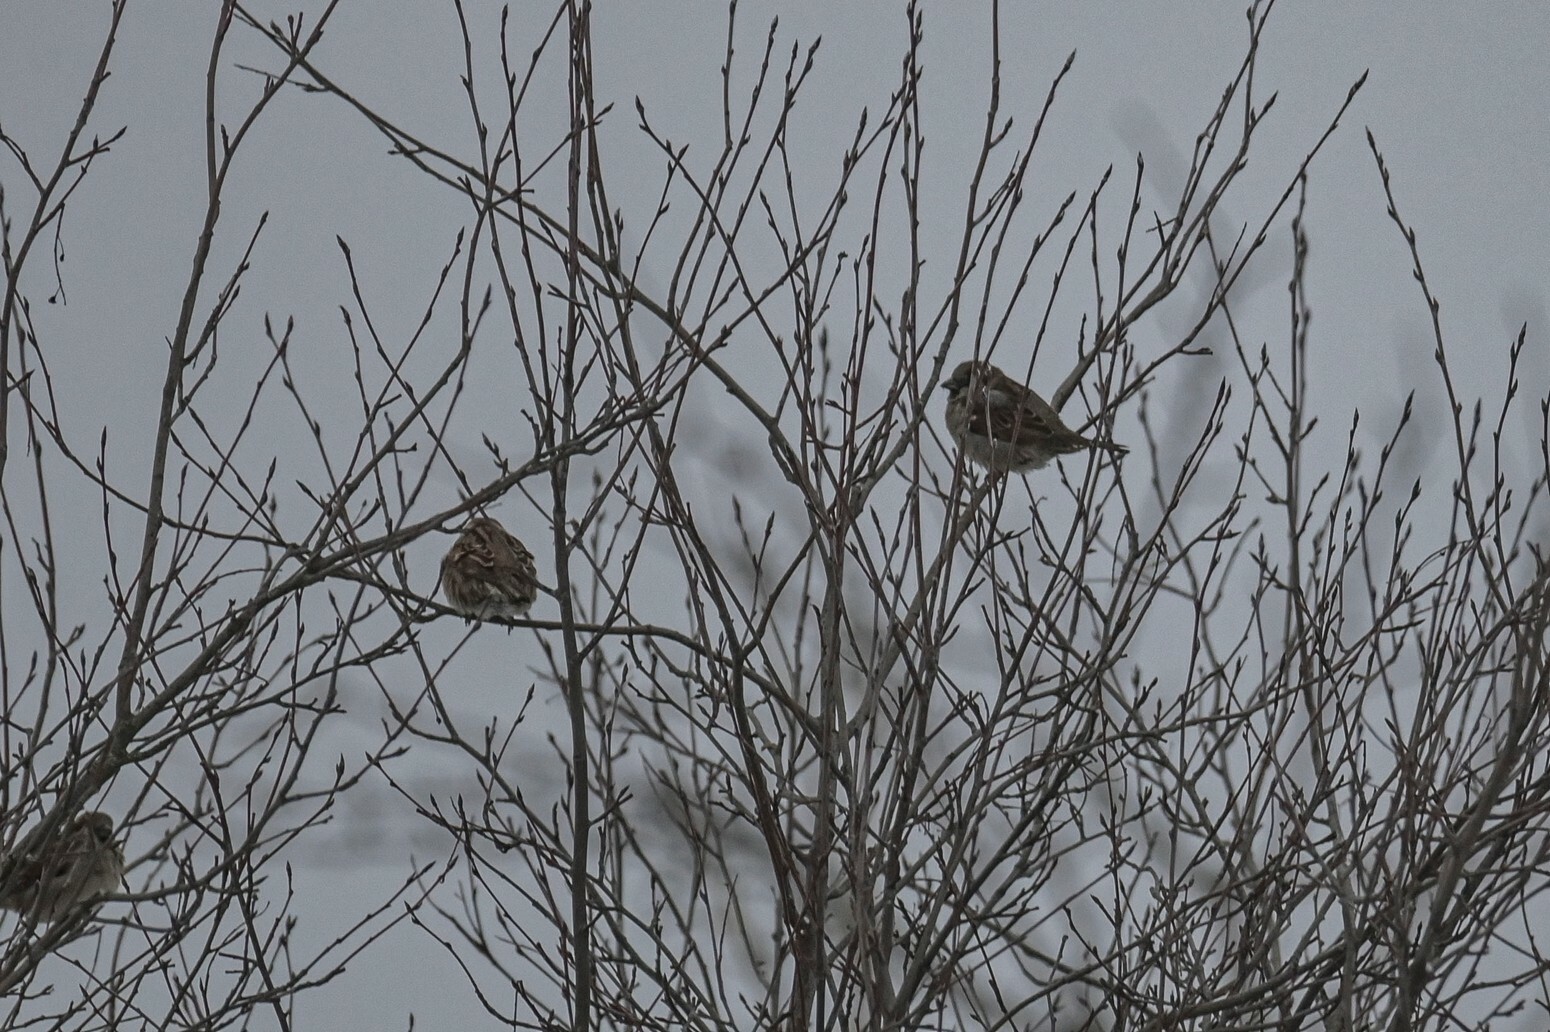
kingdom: Animalia
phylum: Chordata
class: Aves
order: Passeriformes
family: Passeridae
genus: Passer
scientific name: Passer montanus
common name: Eurasian tree sparrow
